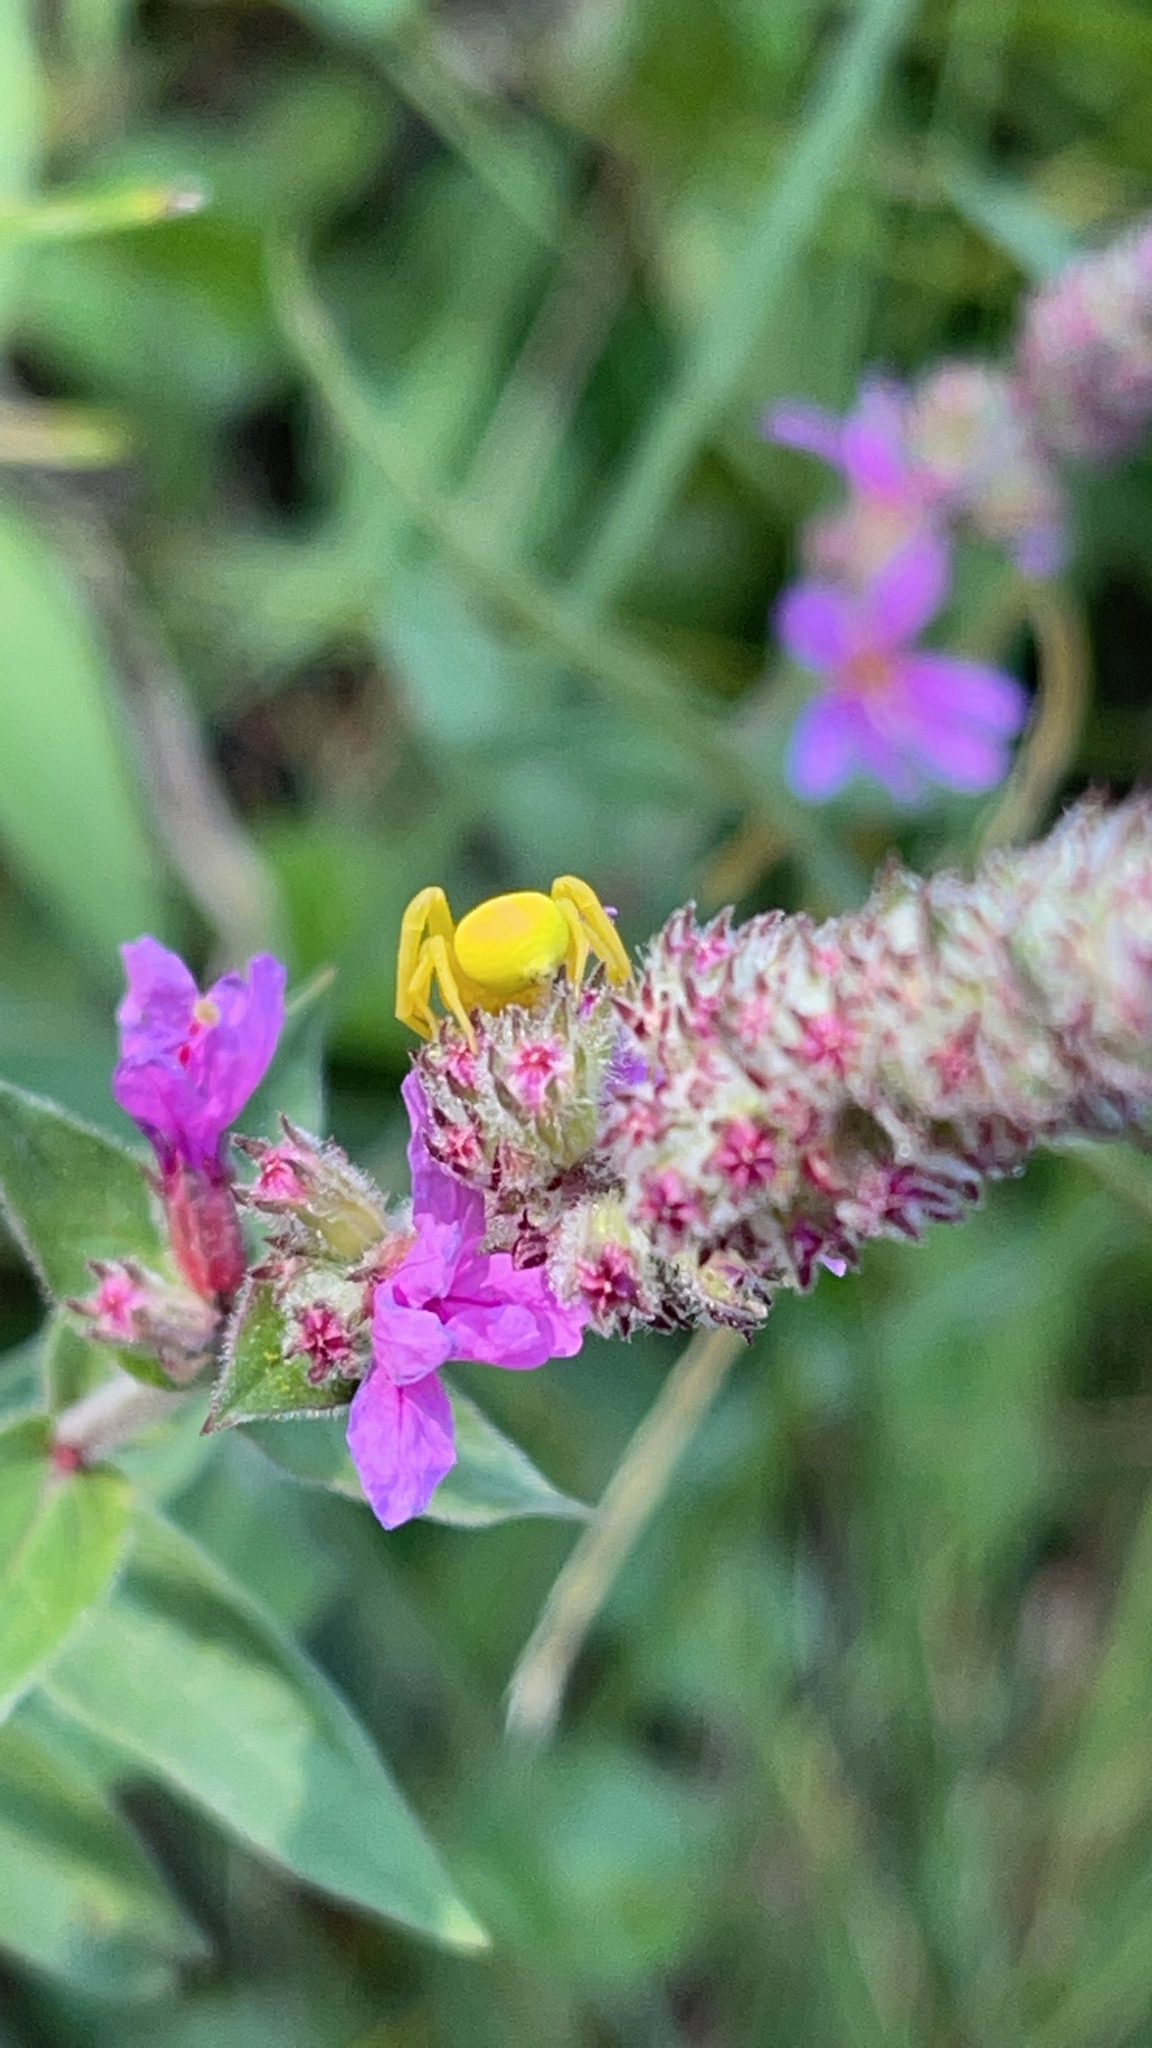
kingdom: Animalia
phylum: Arthropoda
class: Arachnida
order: Araneae
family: Thomisidae
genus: Misumena
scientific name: Misumena vatia
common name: Goldenrod crab spider
